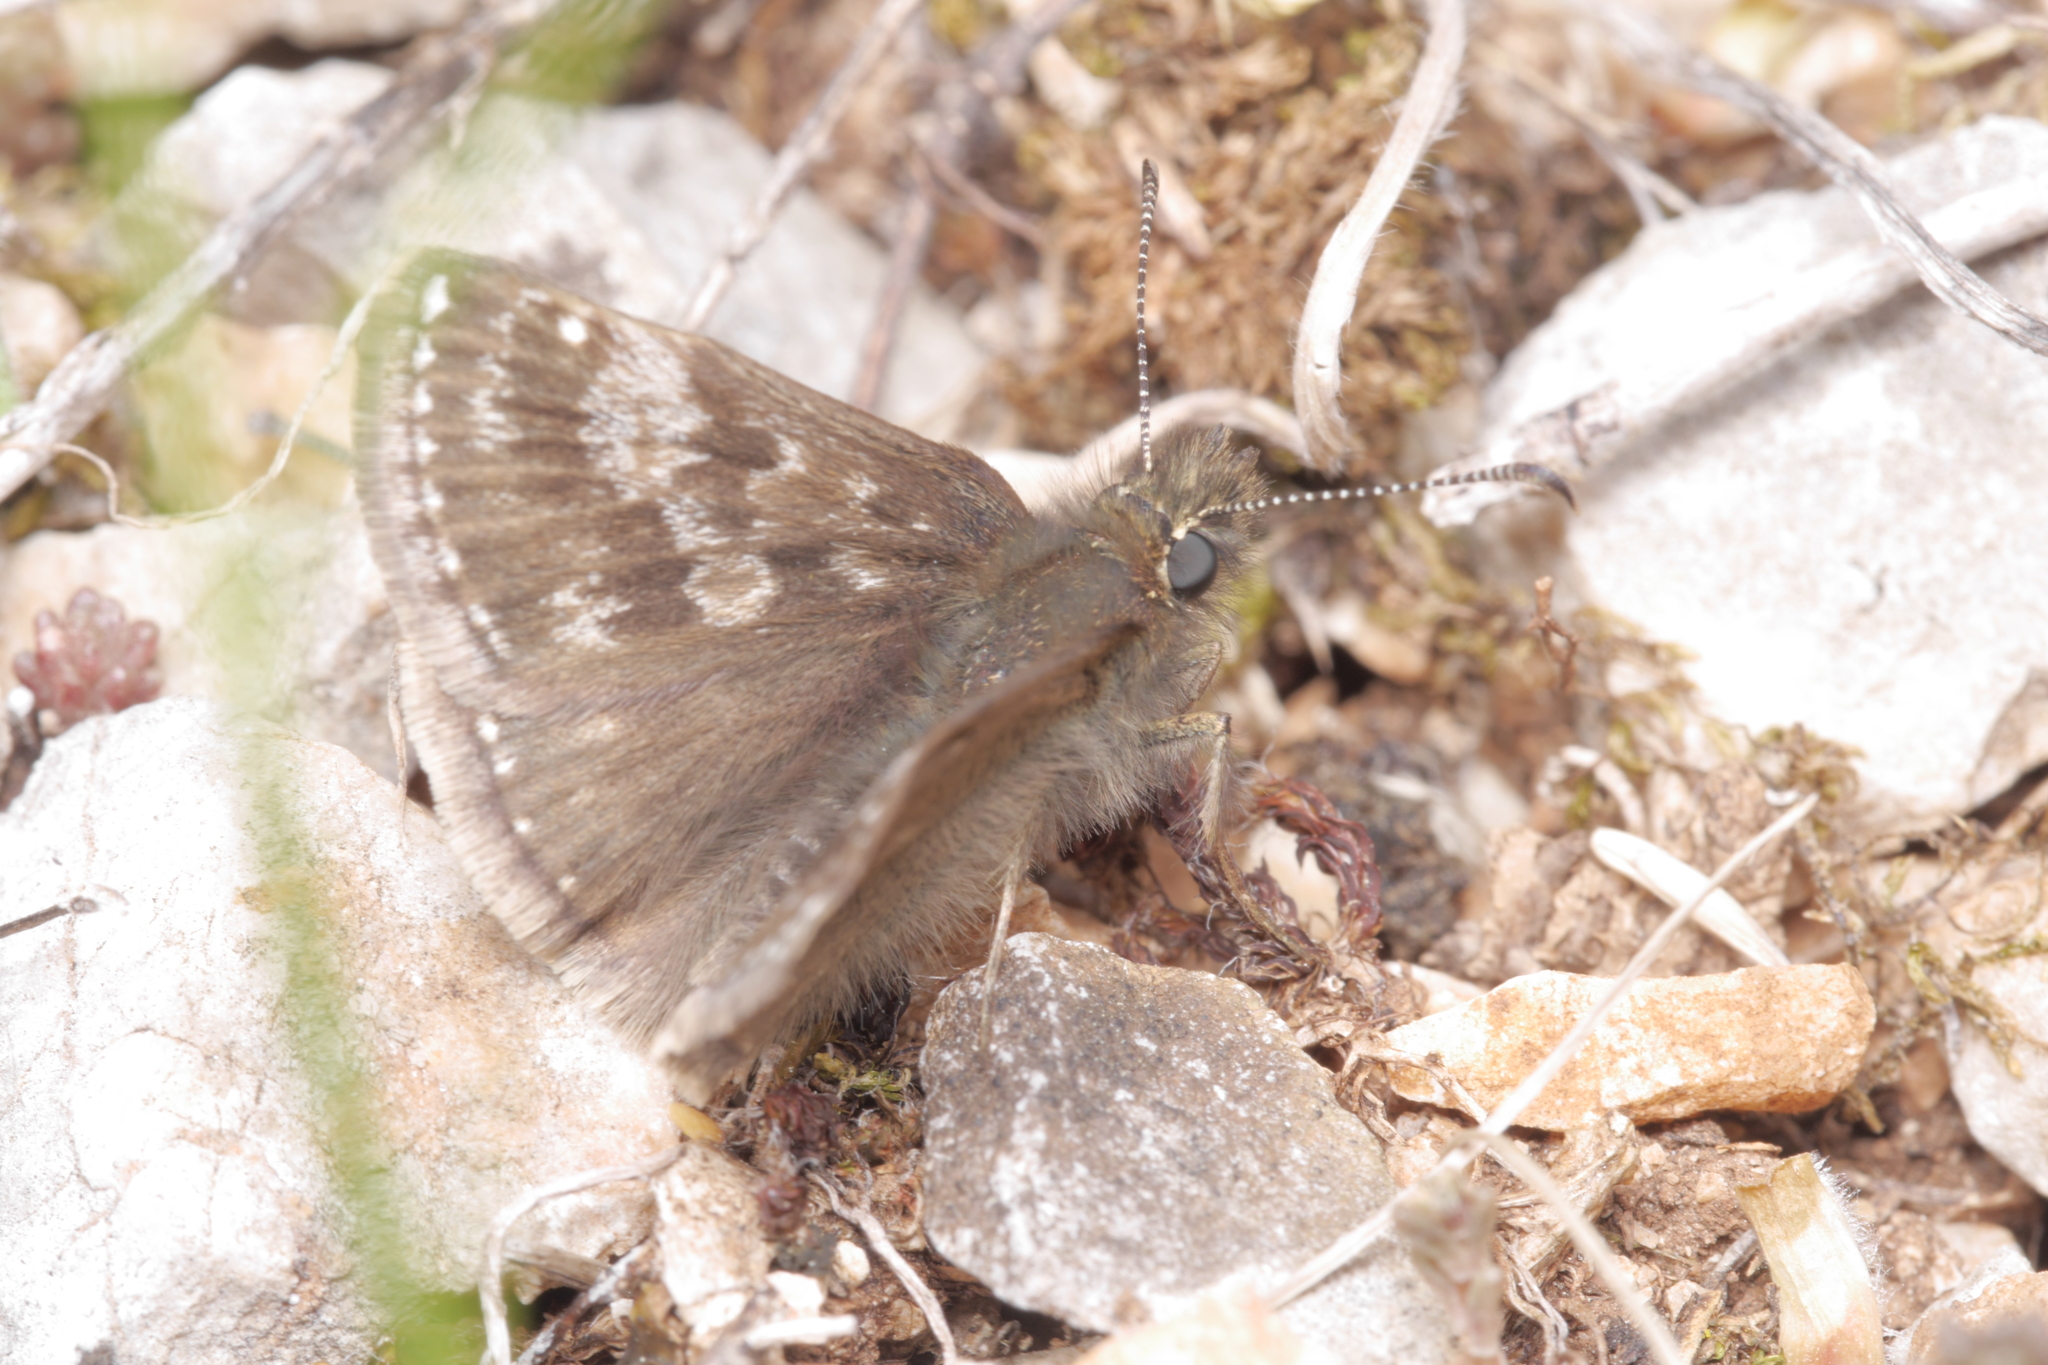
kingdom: Animalia
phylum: Arthropoda
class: Insecta
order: Lepidoptera
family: Hesperiidae
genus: Erynnis
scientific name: Erynnis tages
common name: Dingy skipper
